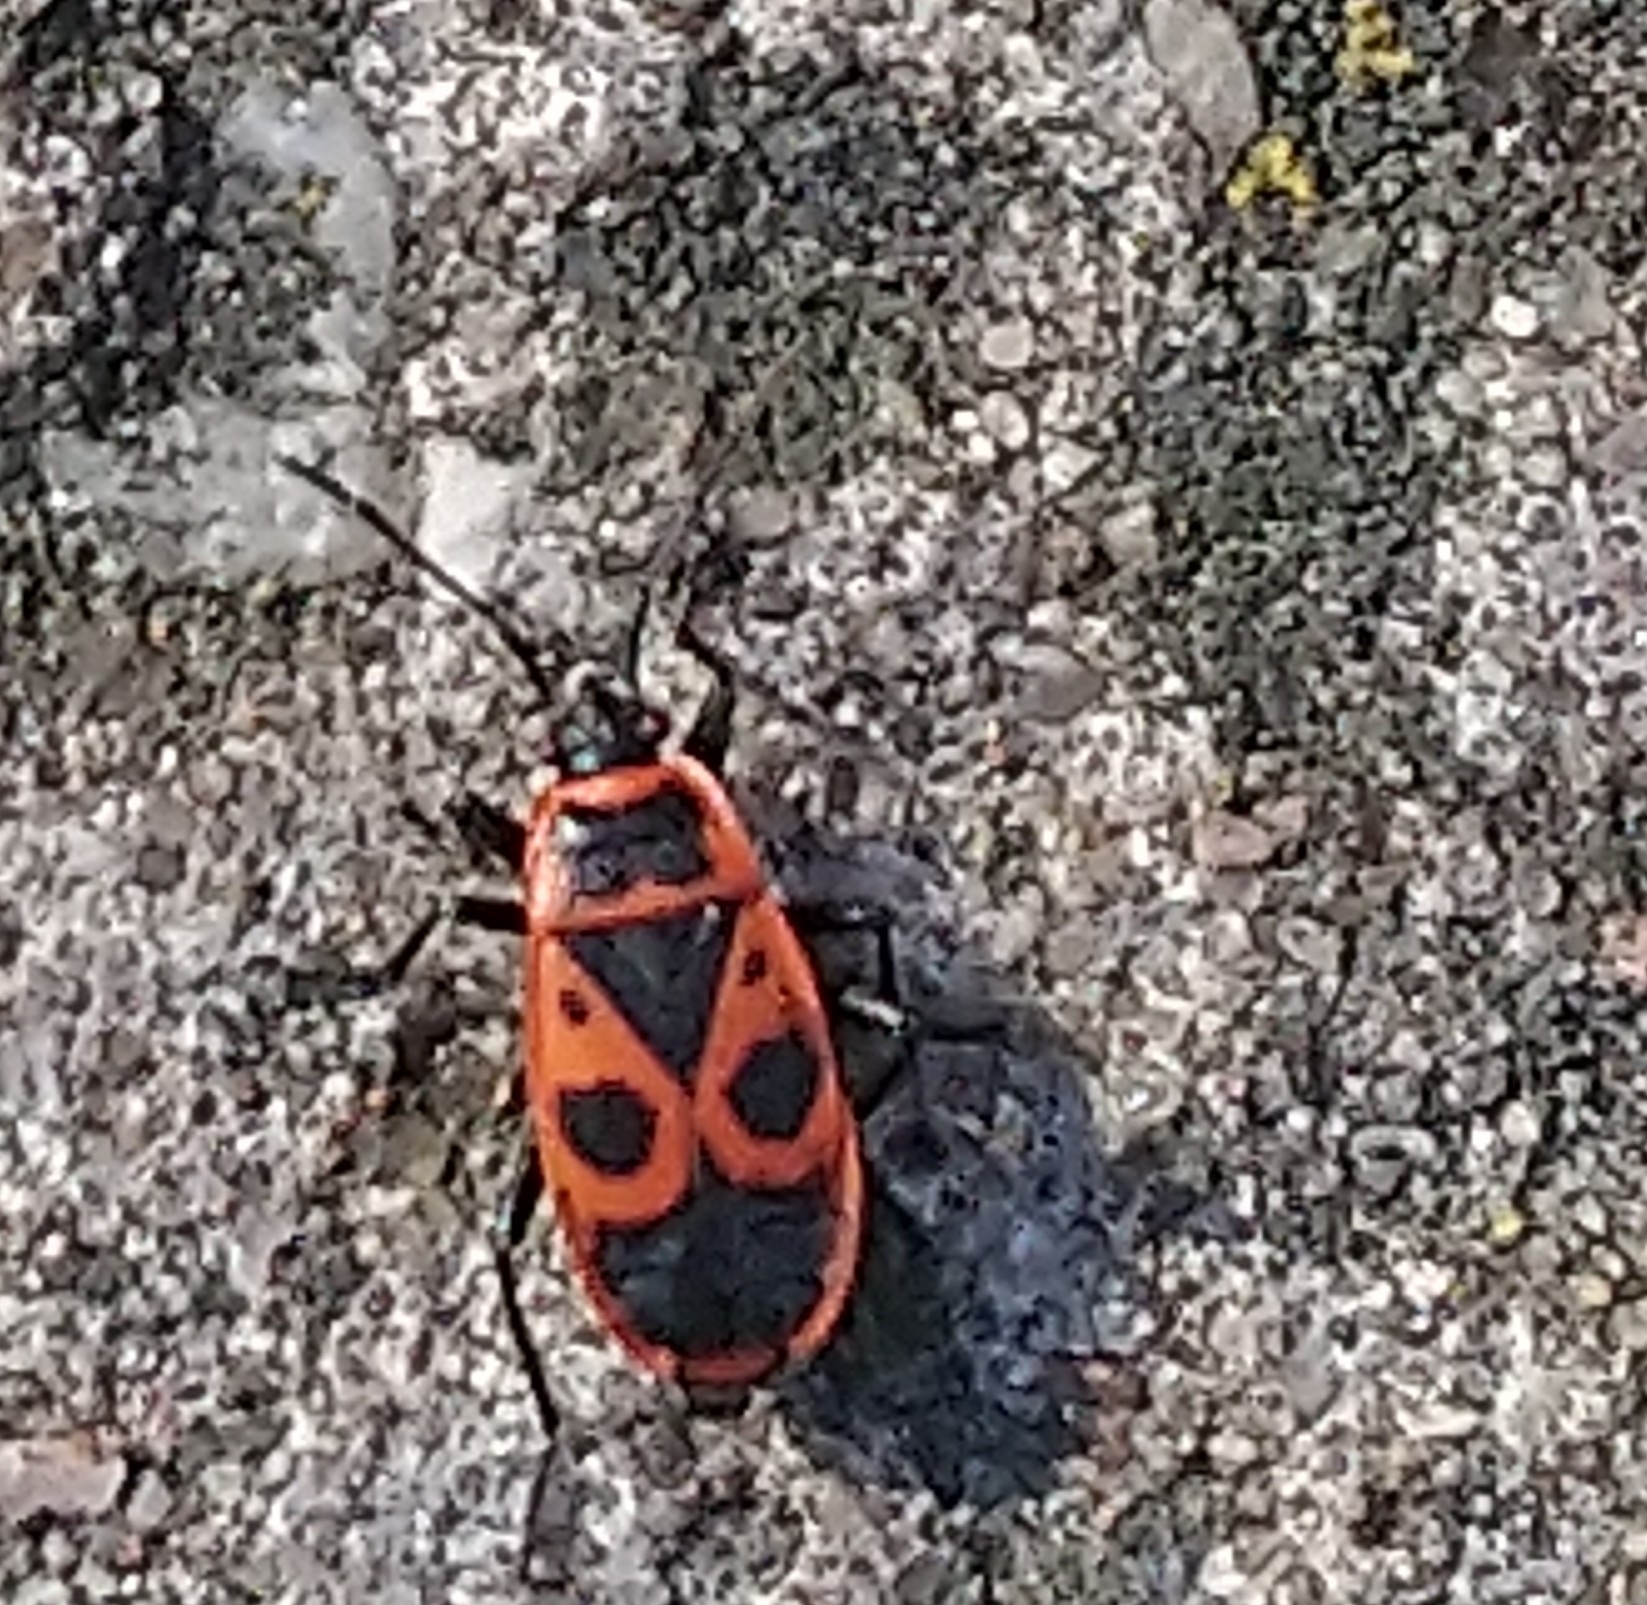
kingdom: Animalia
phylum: Arthropoda
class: Insecta
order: Hemiptera
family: Pyrrhocoridae
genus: Pyrrhocoris
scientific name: Pyrrhocoris apterus
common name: Firebug
